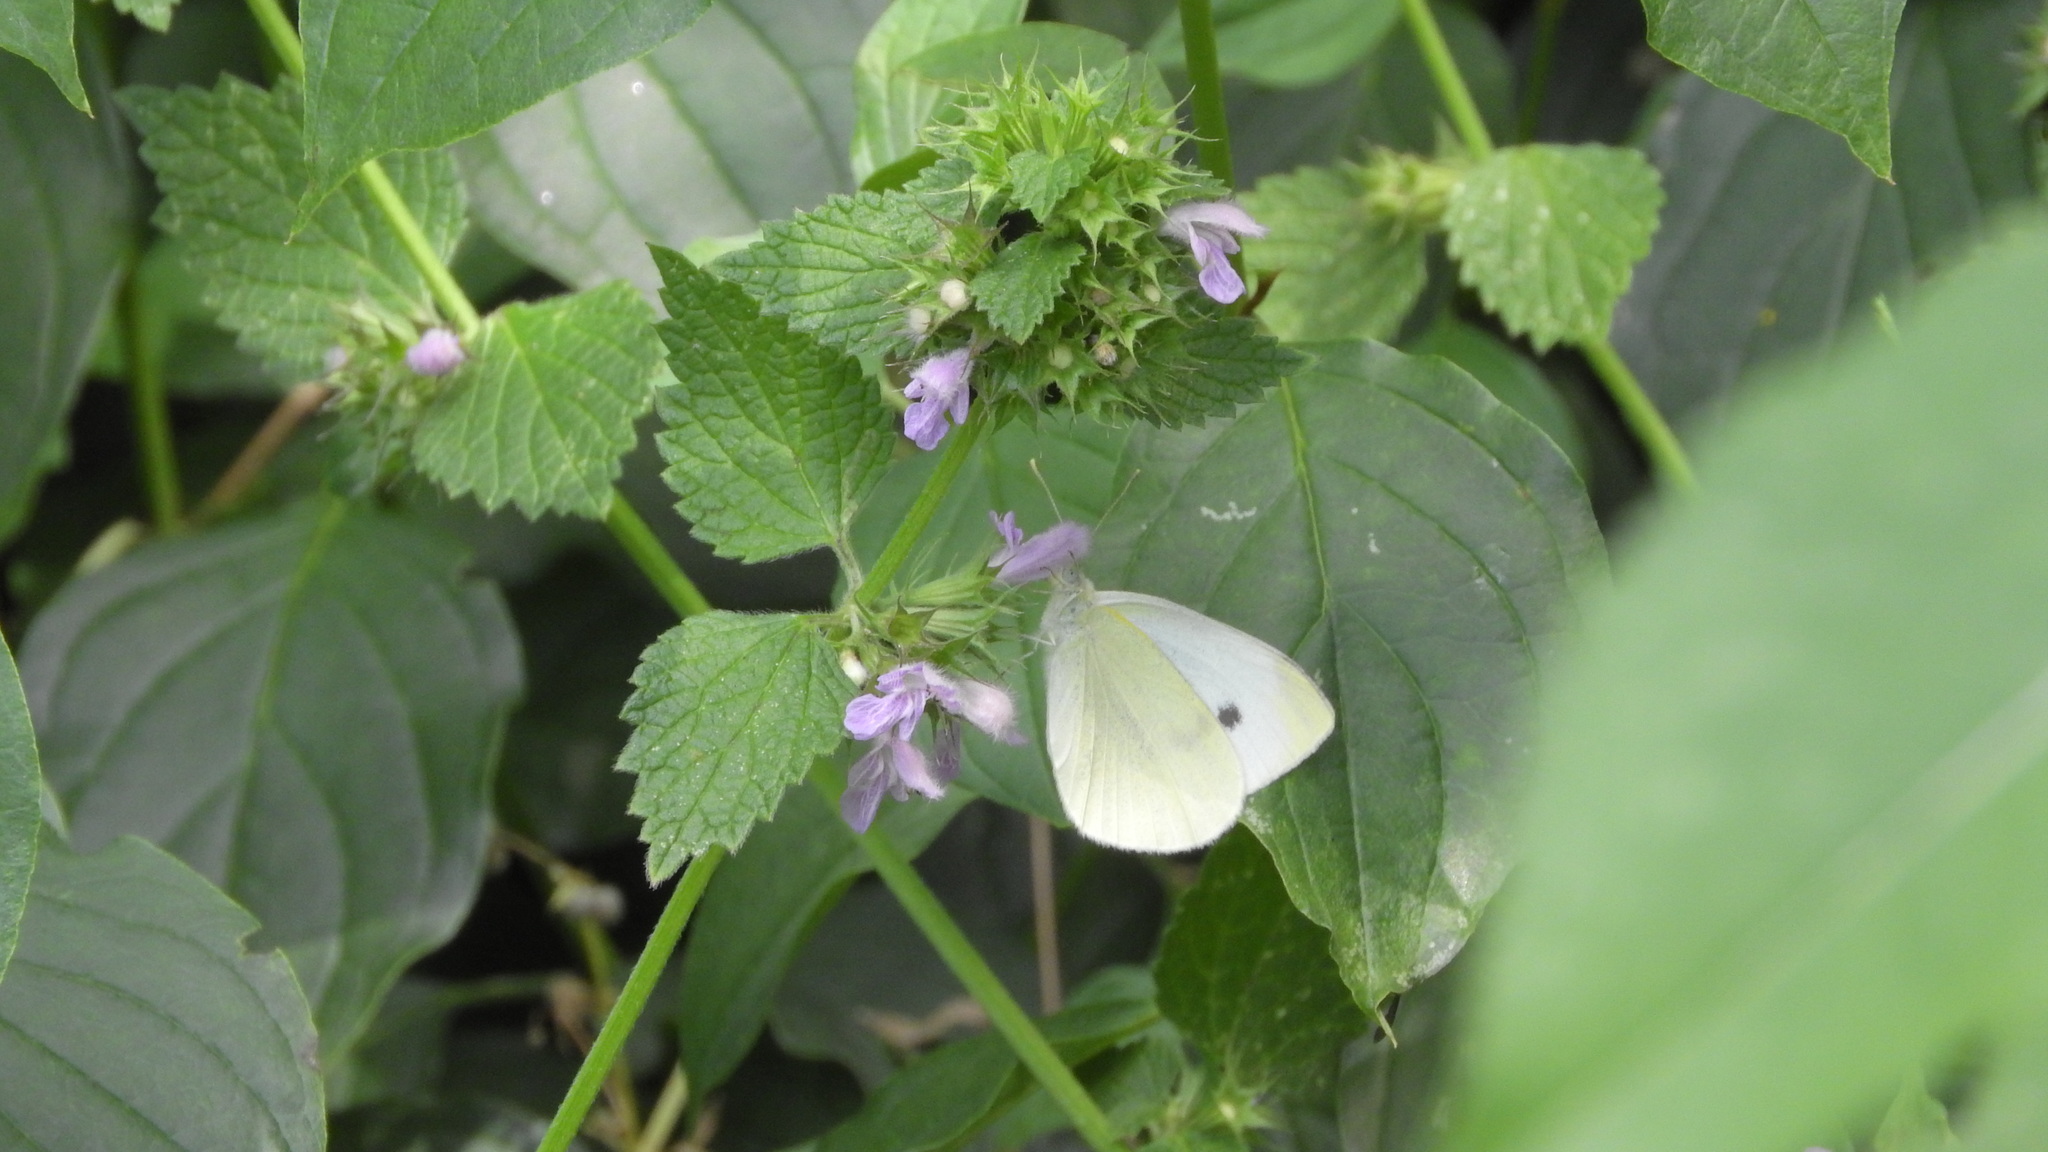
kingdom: Animalia
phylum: Arthropoda
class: Insecta
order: Lepidoptera
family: Pieridae
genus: Pieris
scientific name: Pieris rapae
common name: Small white
